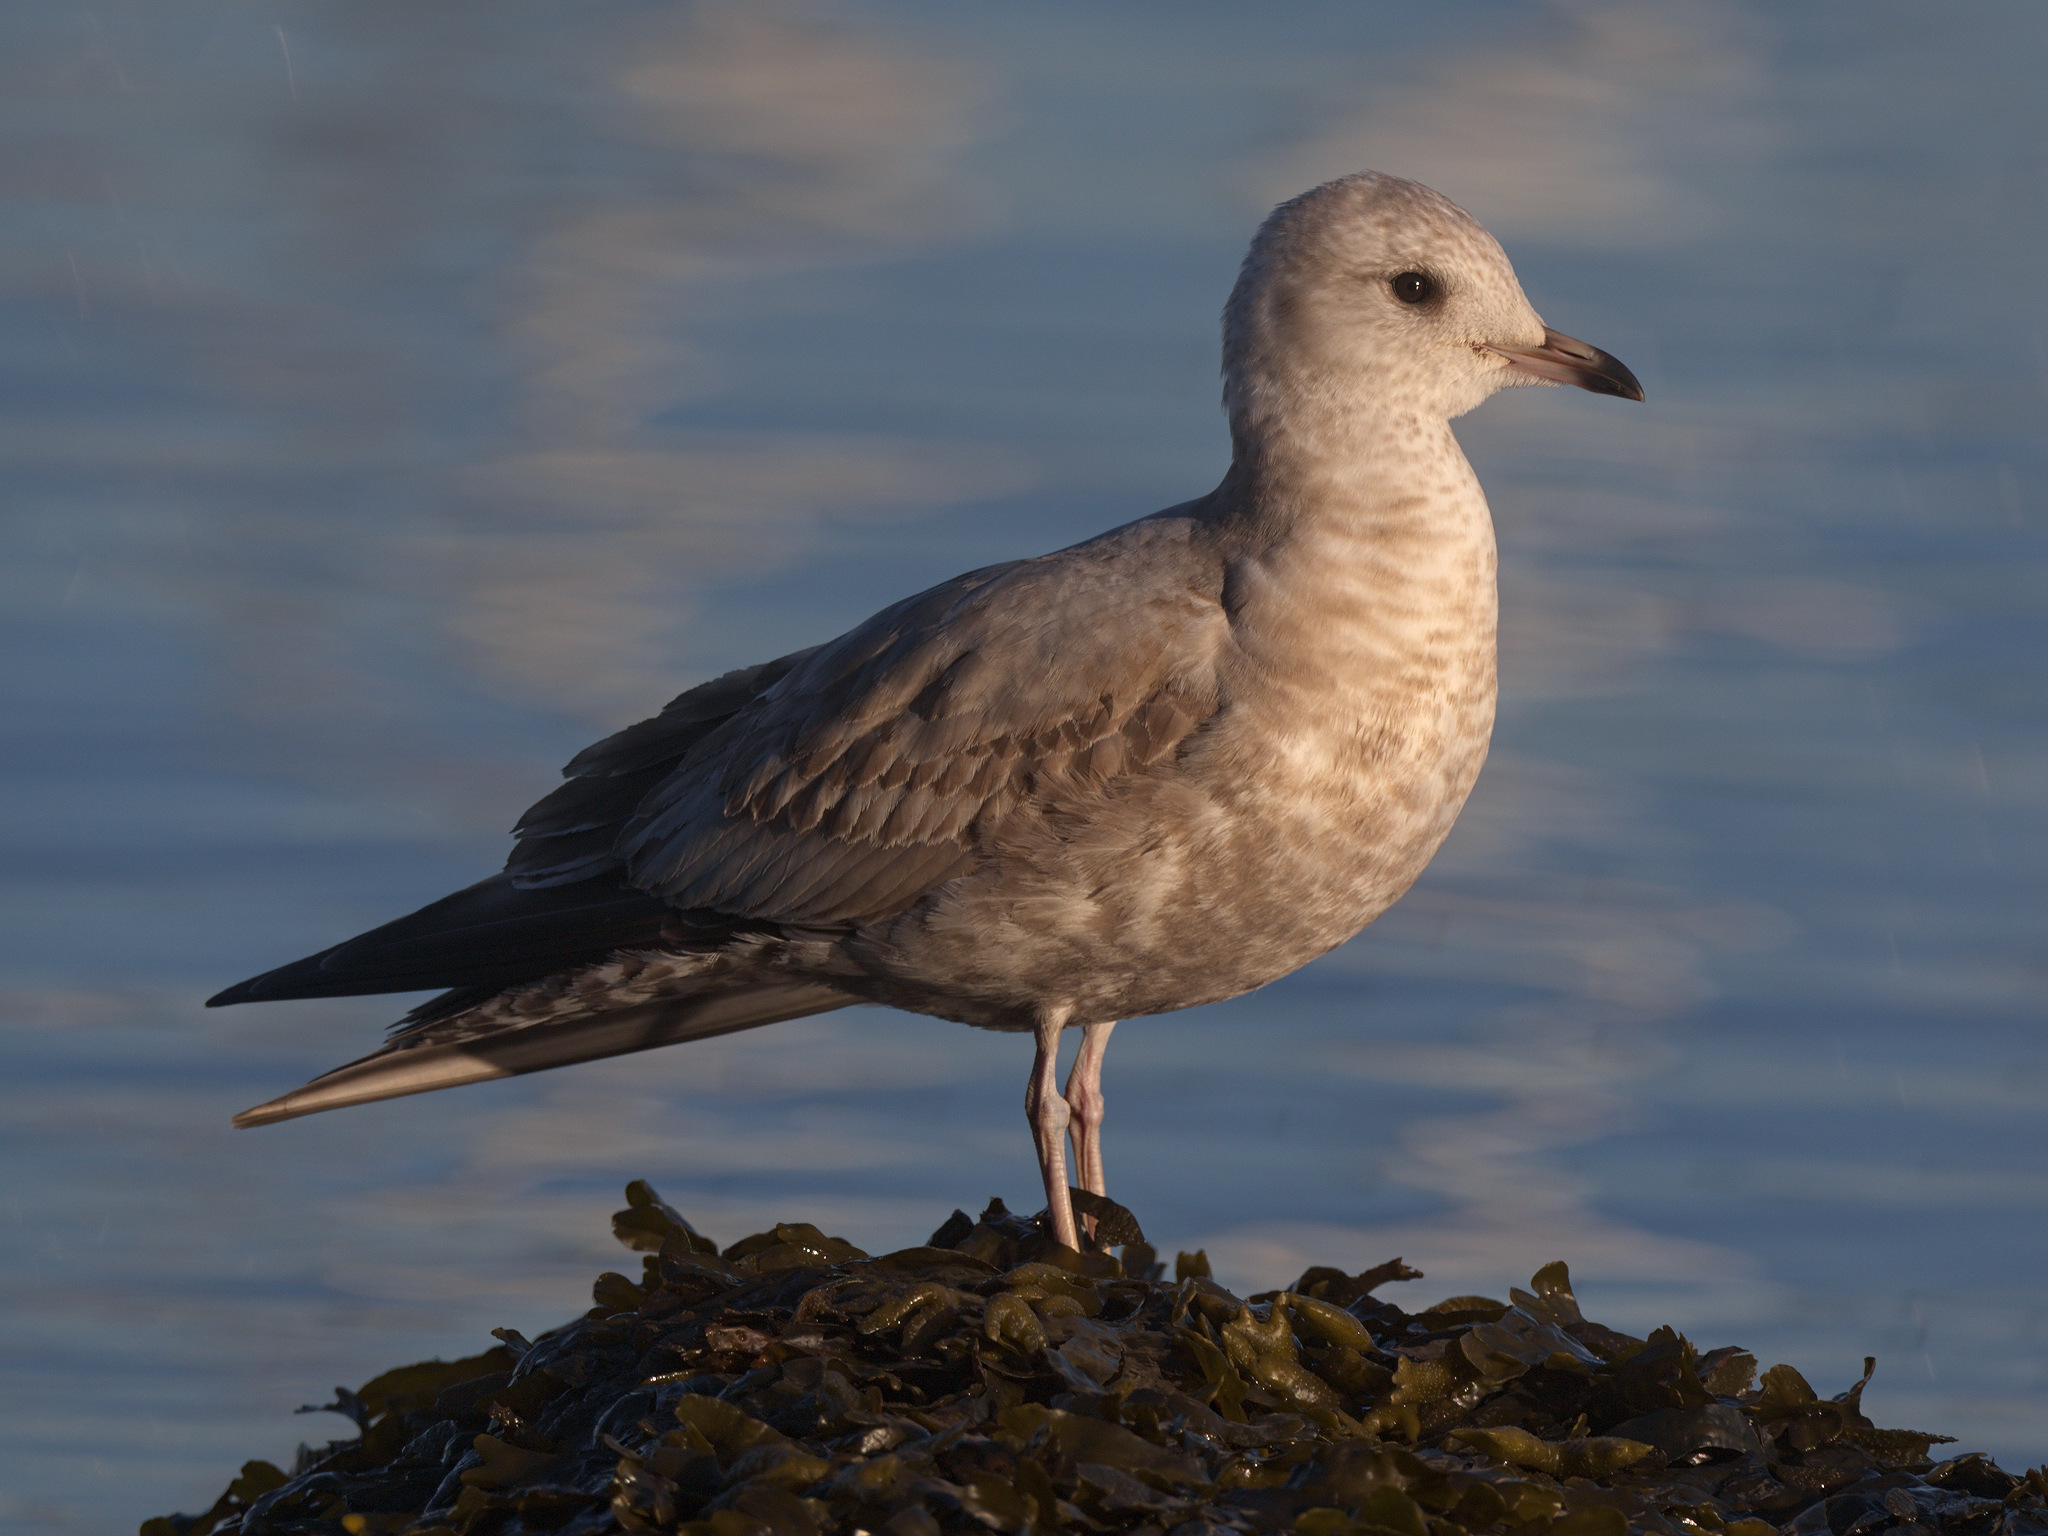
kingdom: Animalia
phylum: Chordata
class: Aves
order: Charadriiformes
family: Laridae
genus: Larus
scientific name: Larus brachyrhynchus
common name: Short-billed gull
